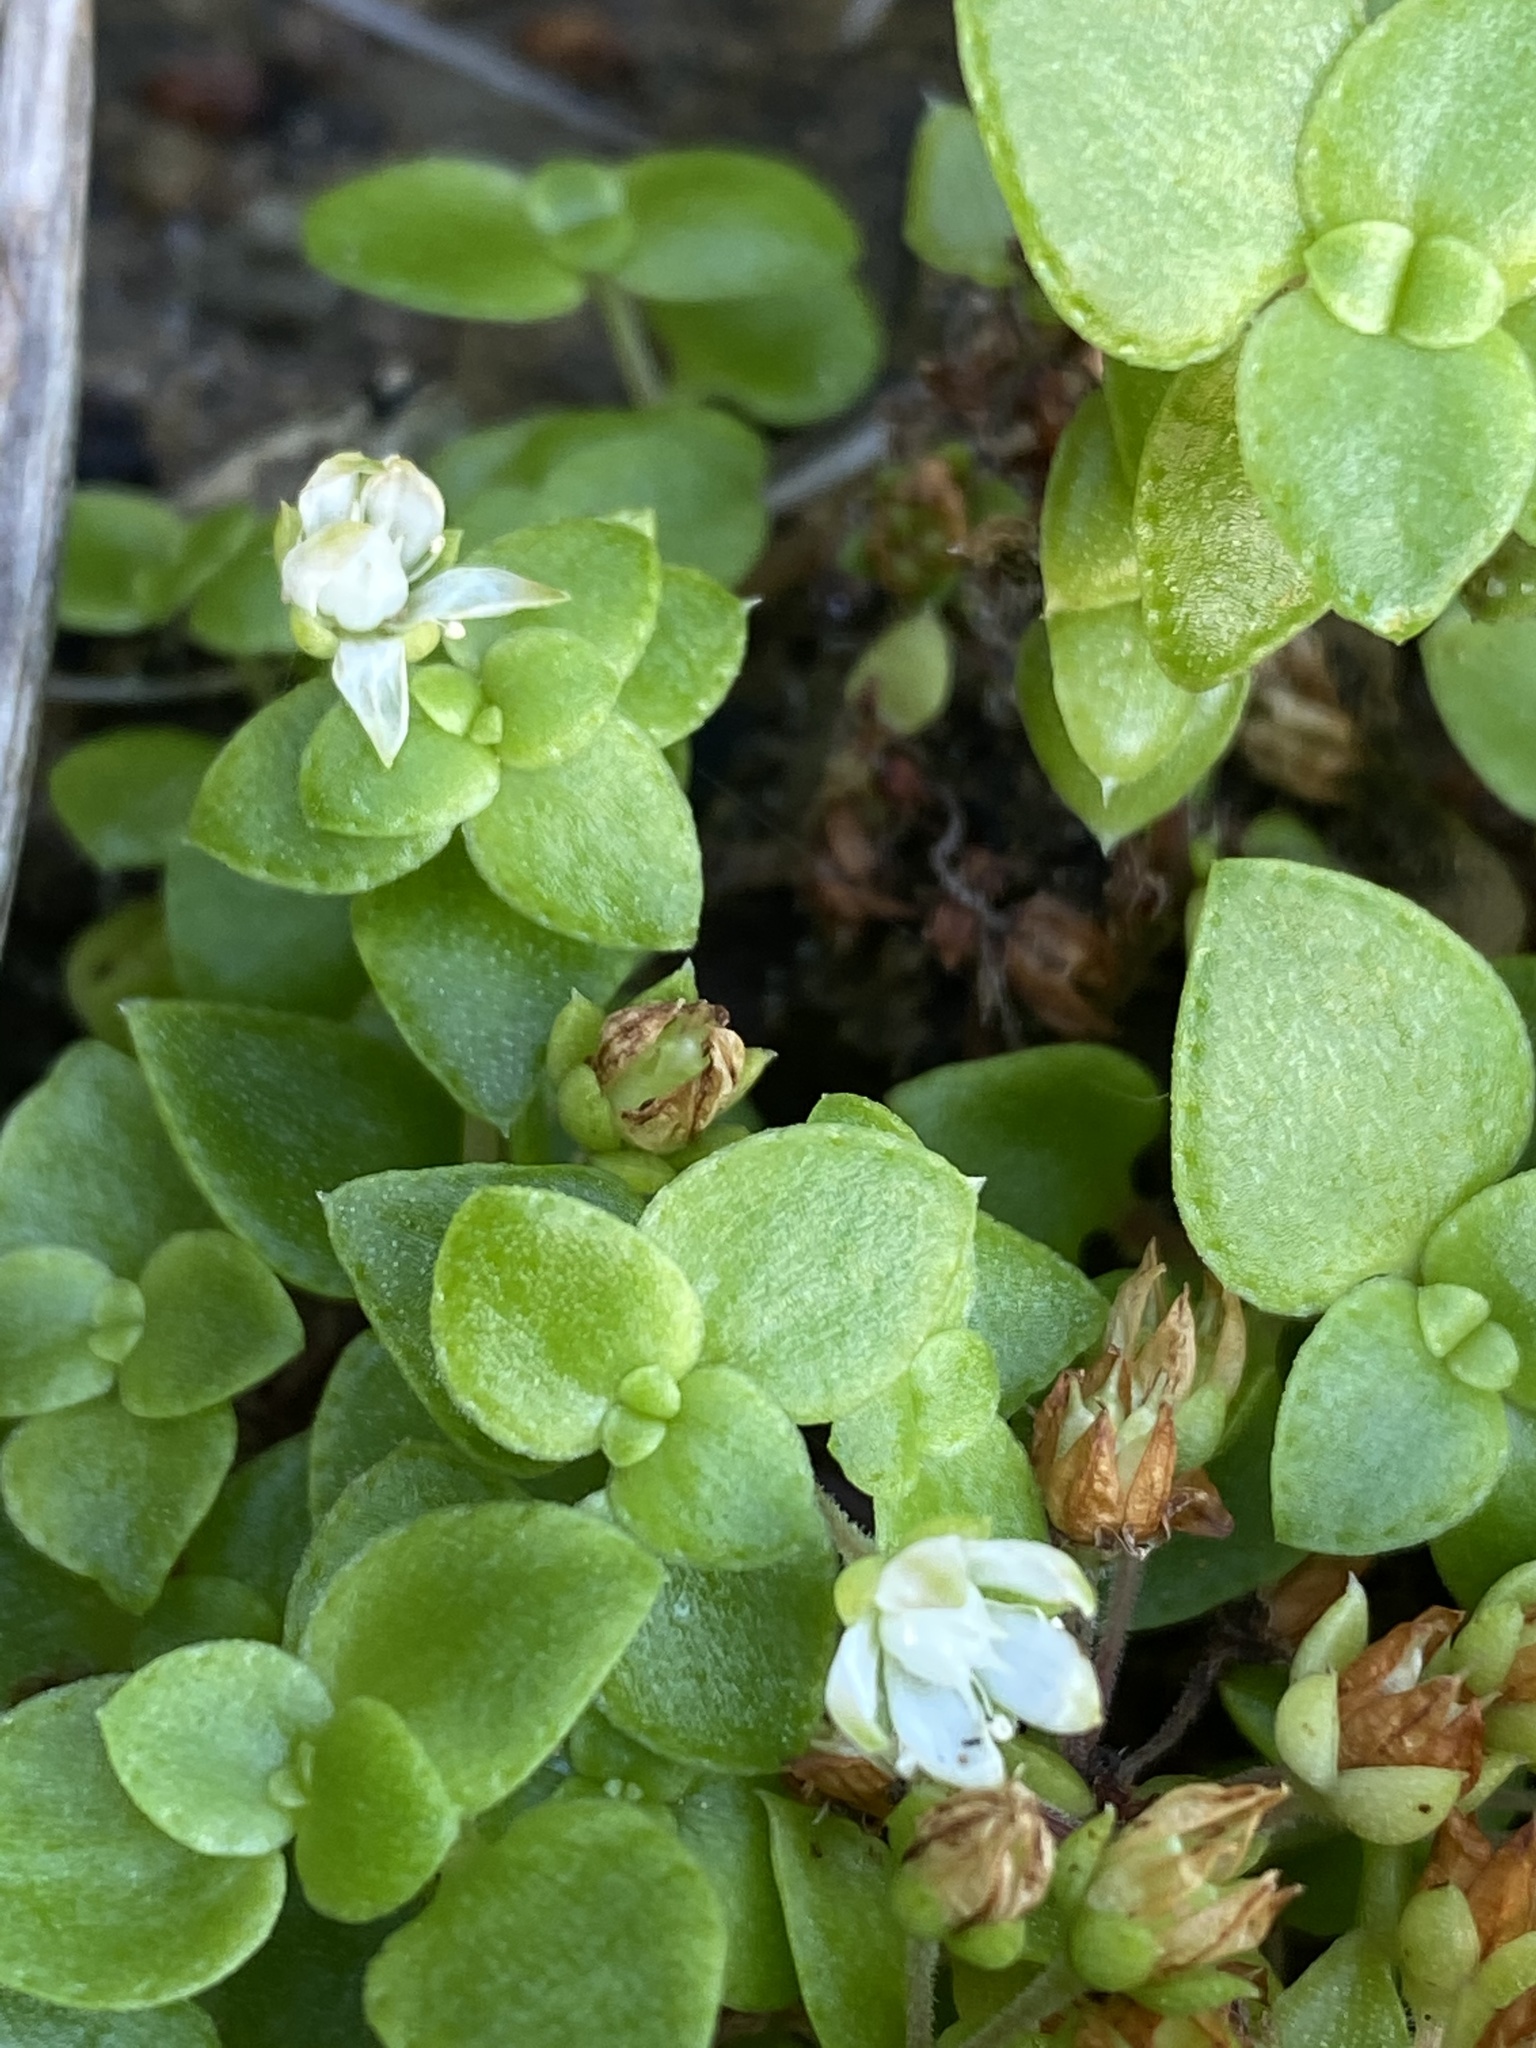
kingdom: Plantae
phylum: Tracheophyta
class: Magnoliopsida
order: Saxifragales
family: Crassulaceae
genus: Crassula
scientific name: Crassula pellucida
